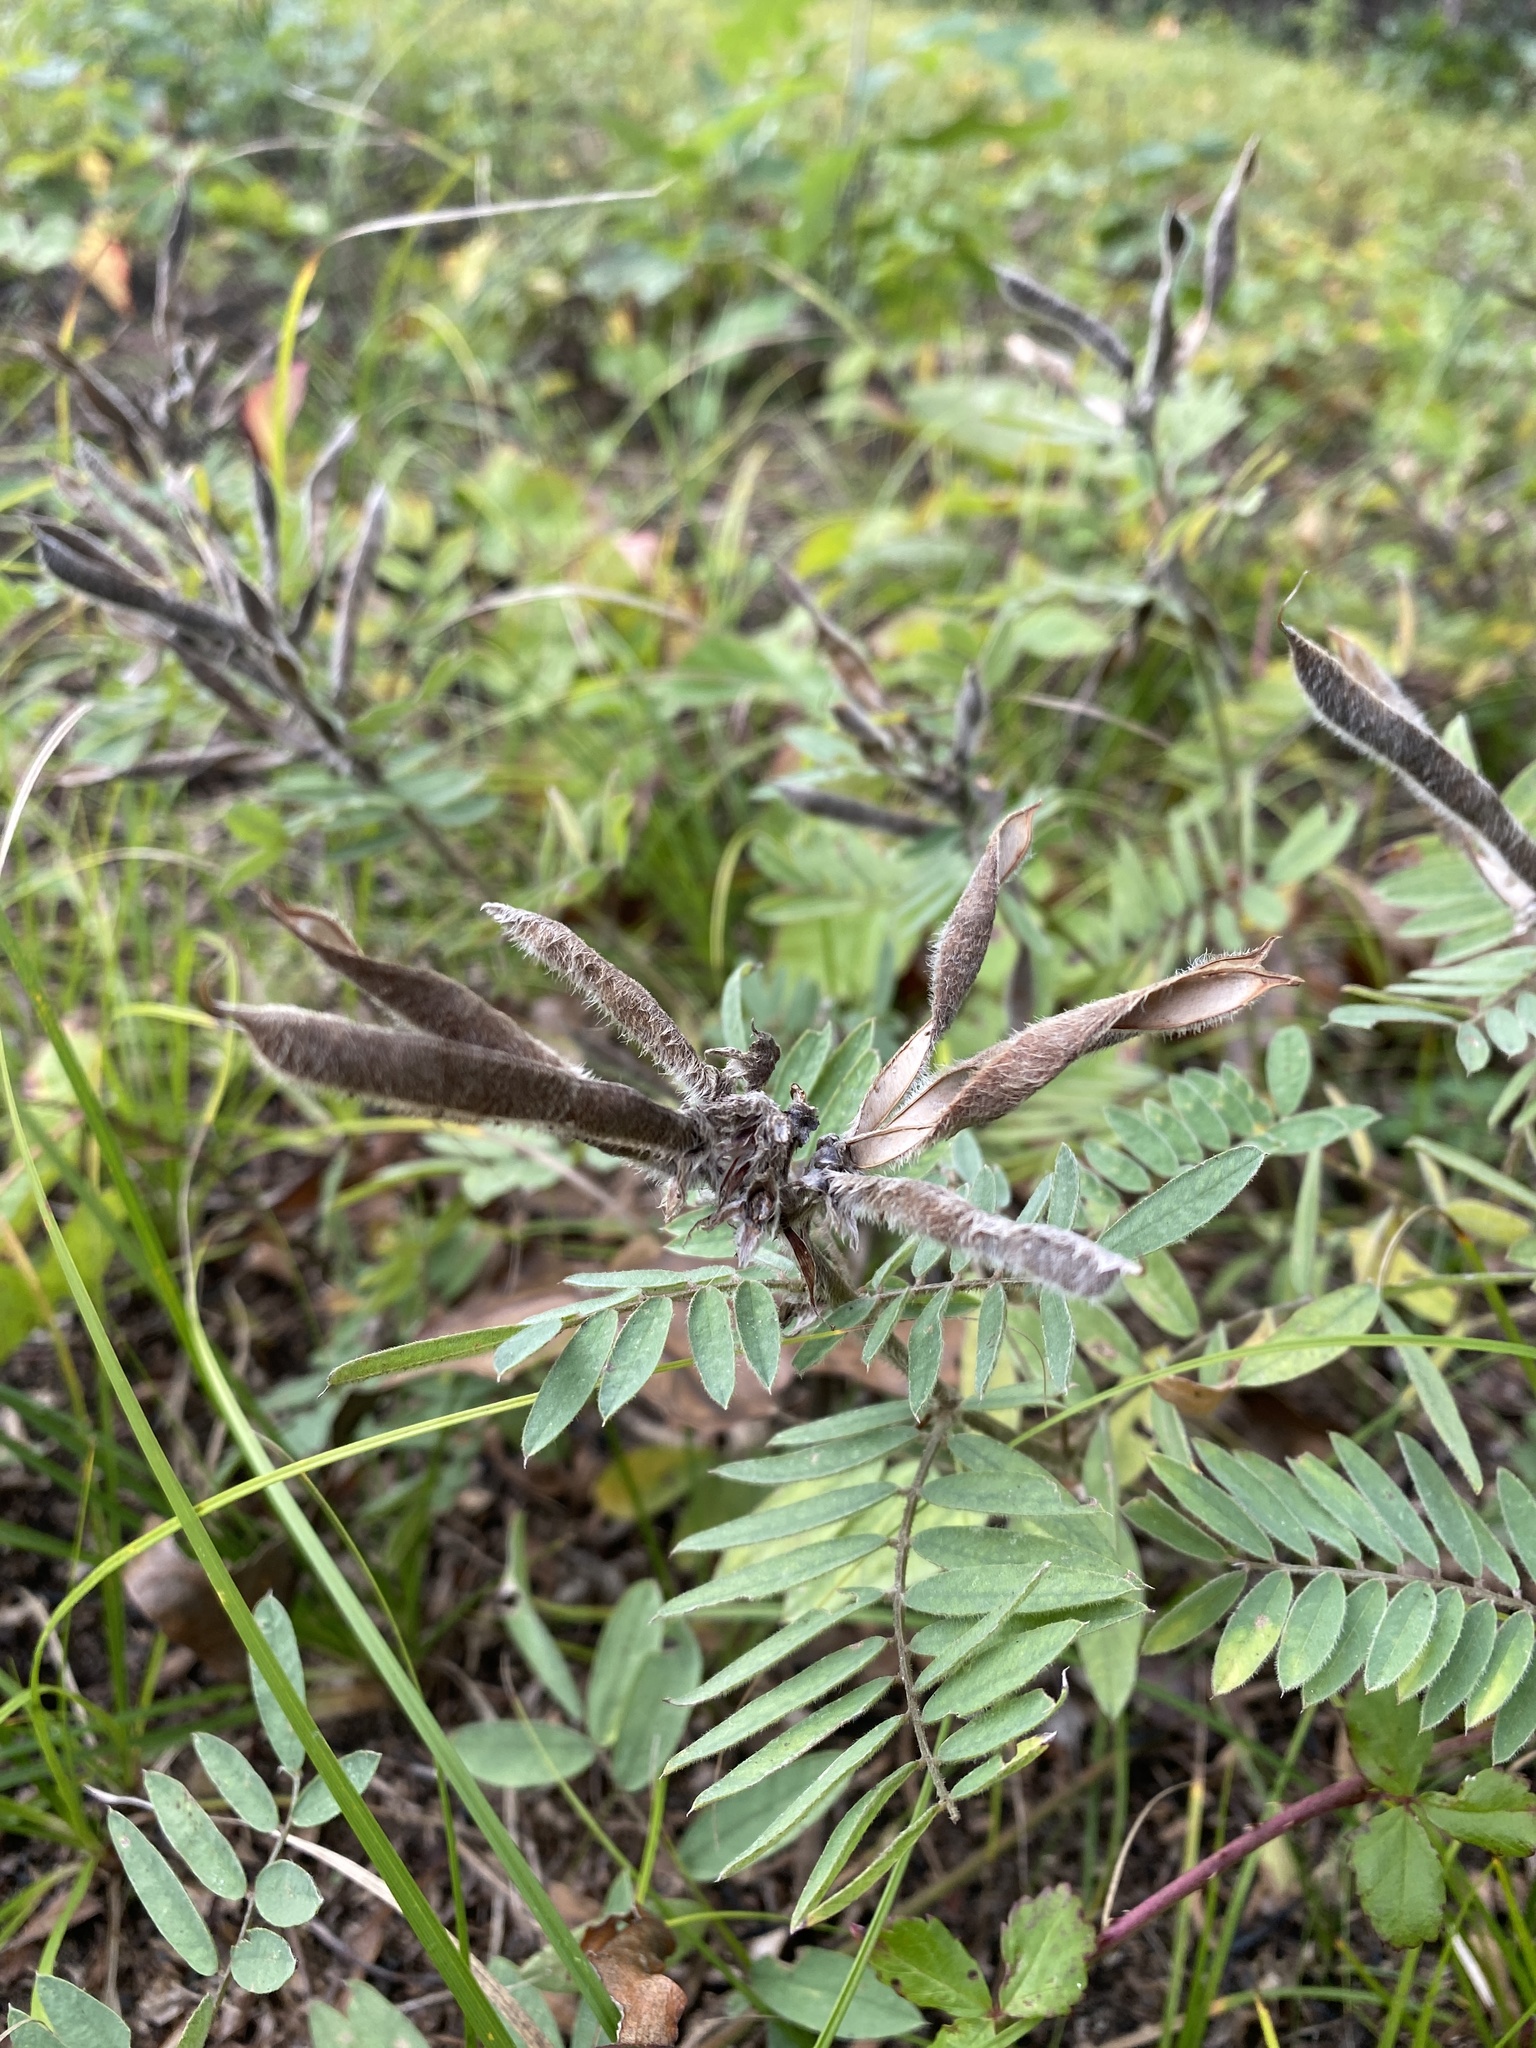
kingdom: Plantae
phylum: Tracheophyta
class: Magnoliopsida
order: Fabales
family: Fabaceae
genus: Tephrosia
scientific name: Tephrosia virginiana
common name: Rabbit-pea
